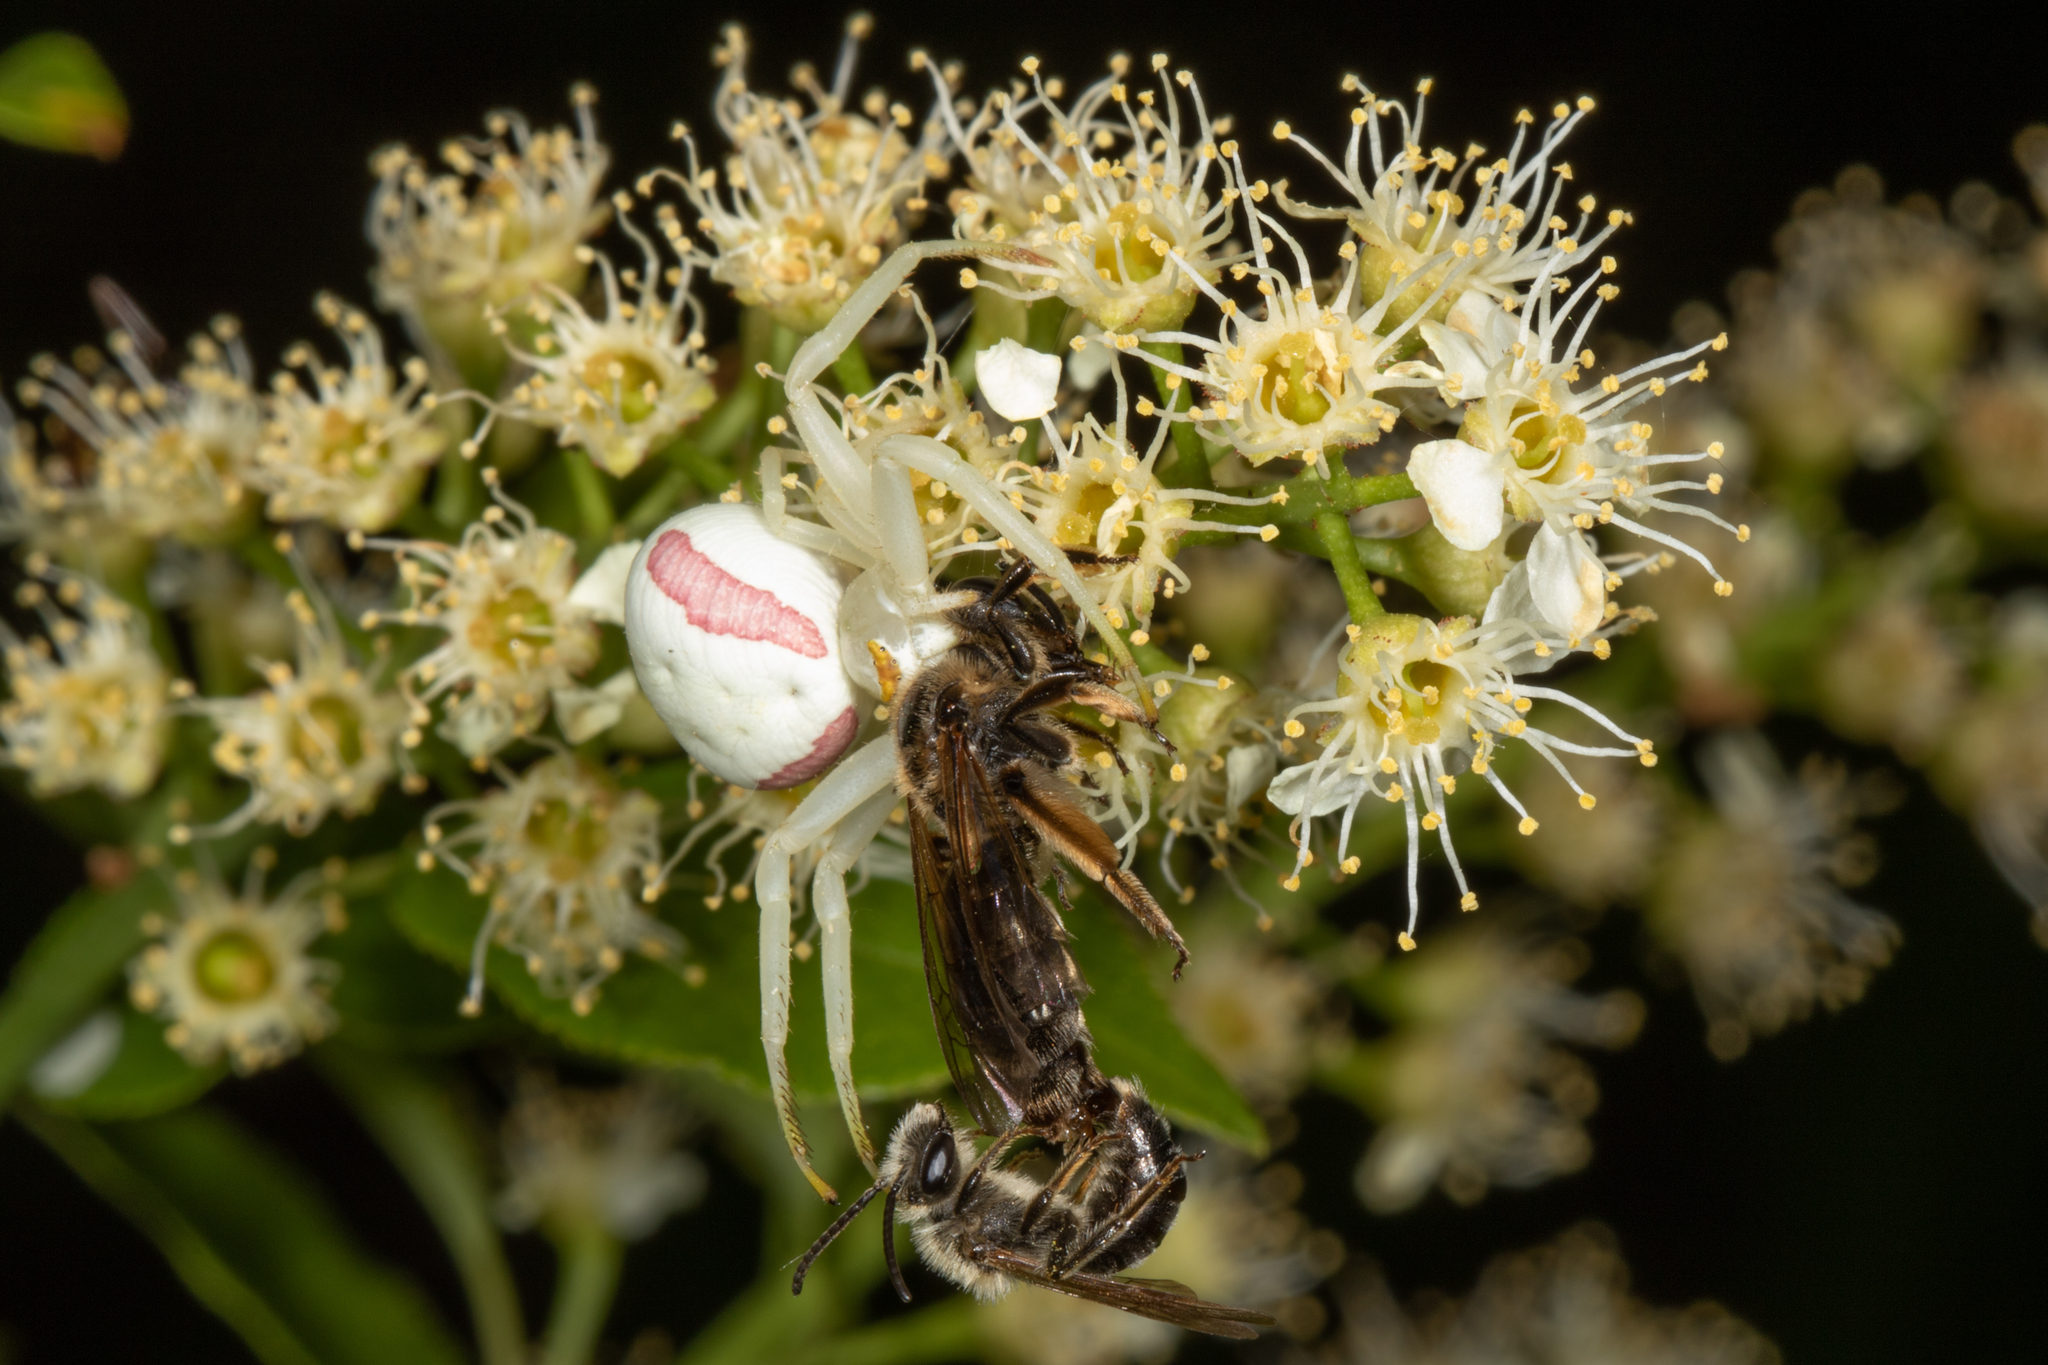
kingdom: Animalia
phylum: Arthropoda
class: Arachnida
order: Araneae
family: Thomisidae
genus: Misumena
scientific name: Misumena vatia
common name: Goldenrod crab spider
